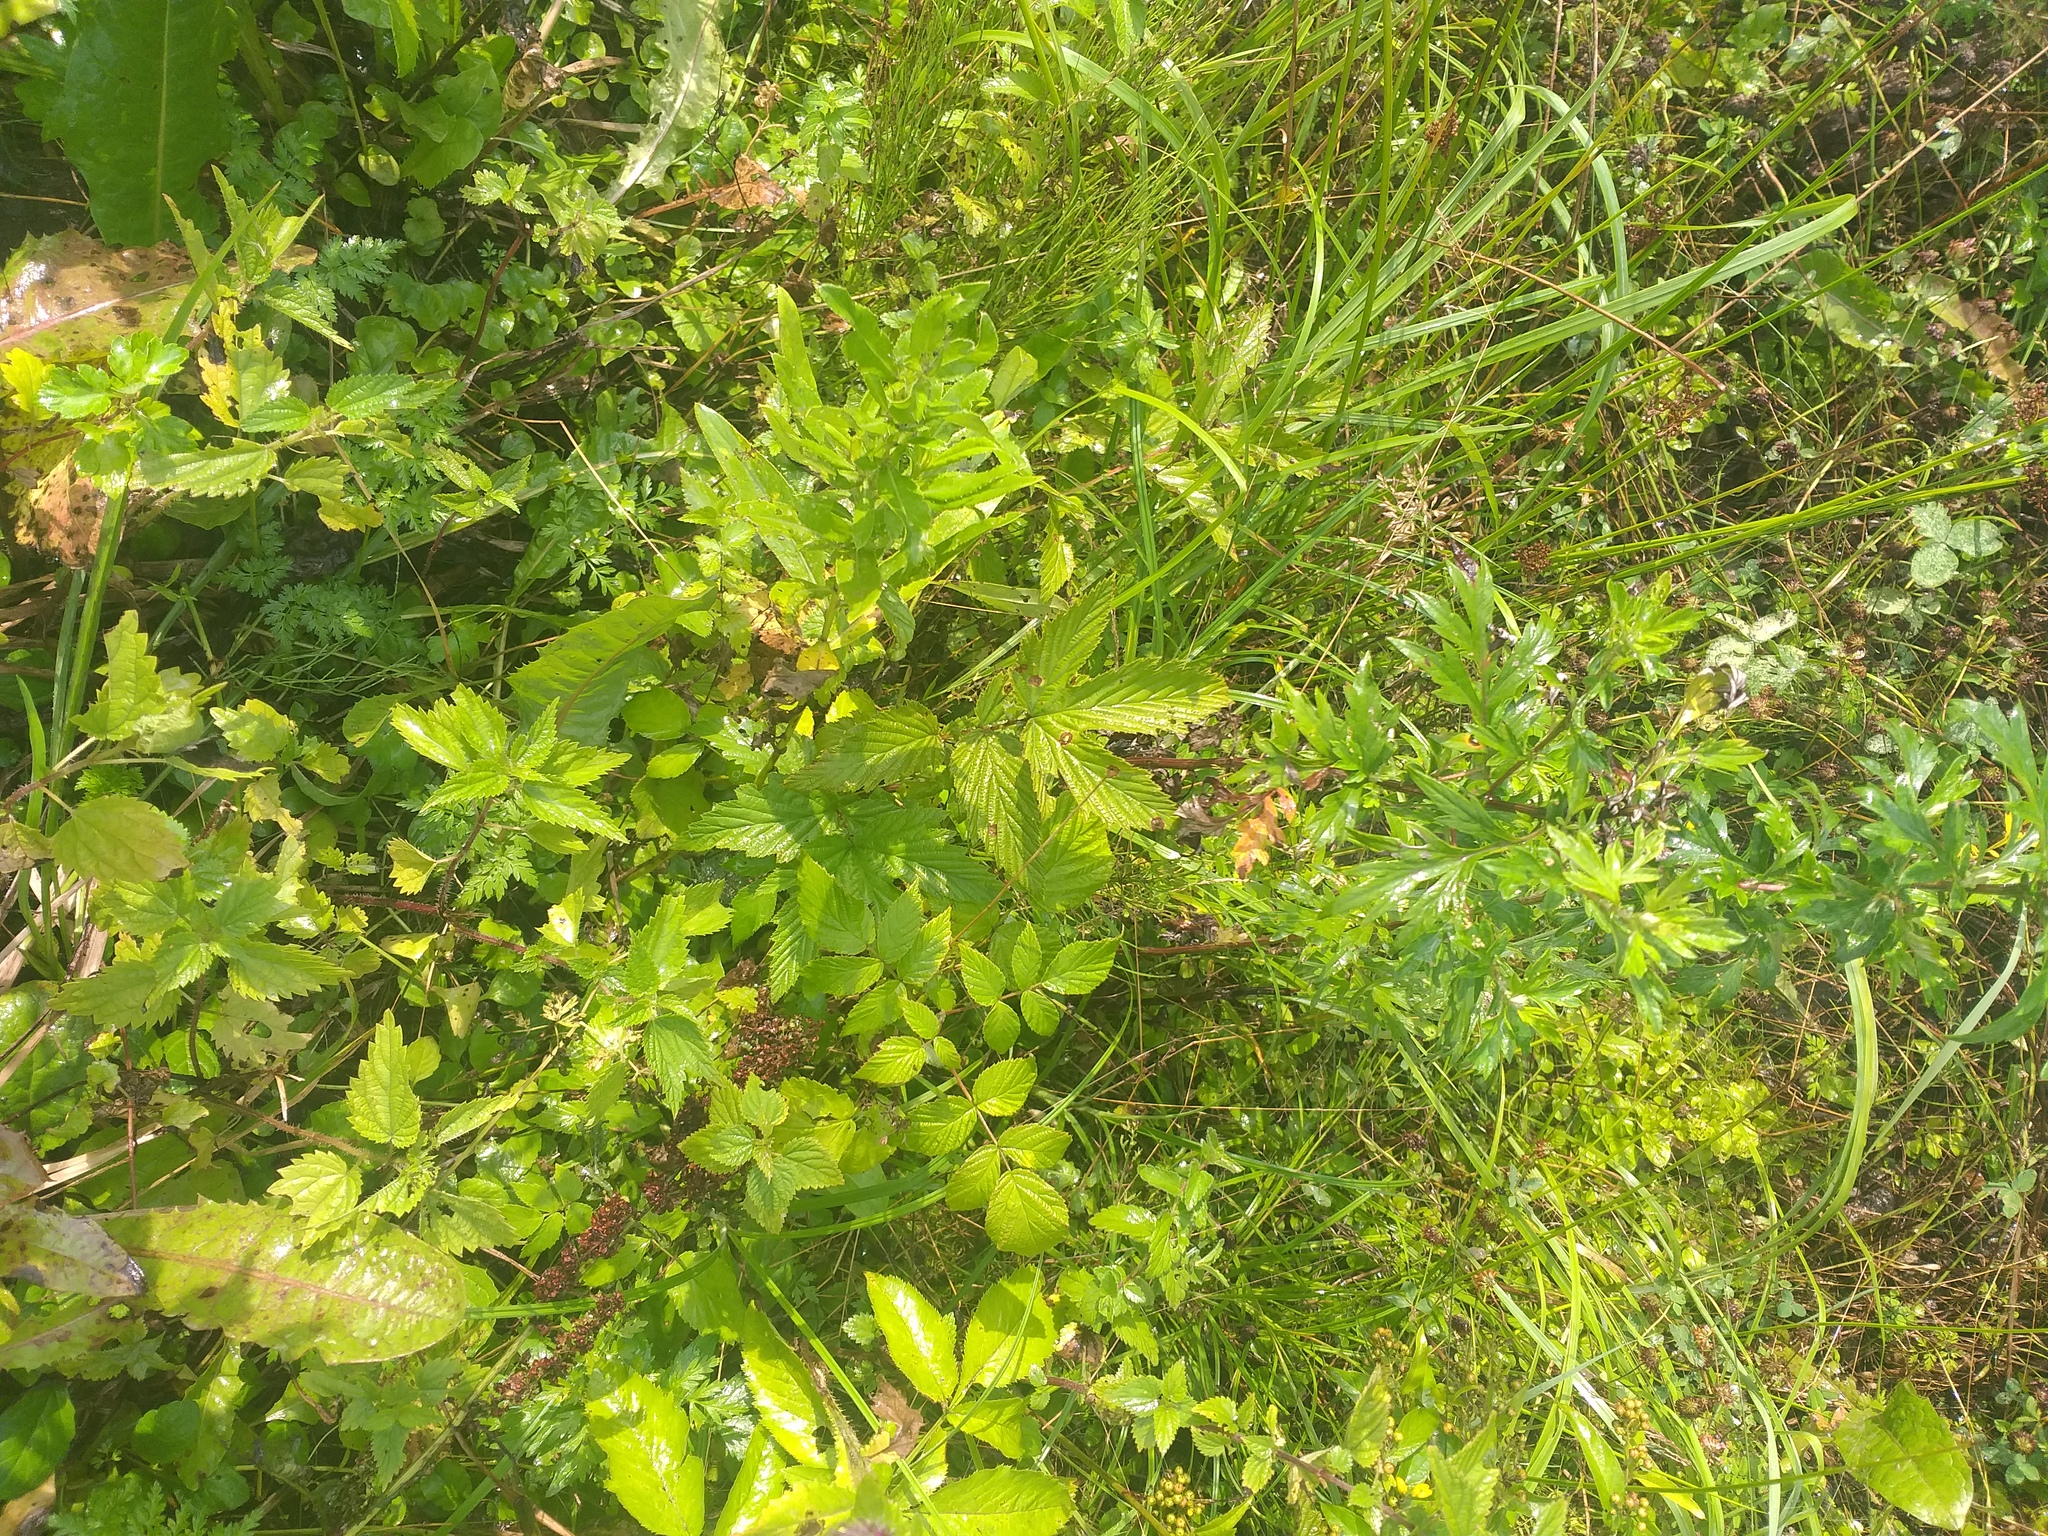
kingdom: Plantae
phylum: Tracheophyta
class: Magnoliopsida
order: Rosales
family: Rosaceae
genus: Filipendula
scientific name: Filipendula ulmaria
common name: Meadowsweet
